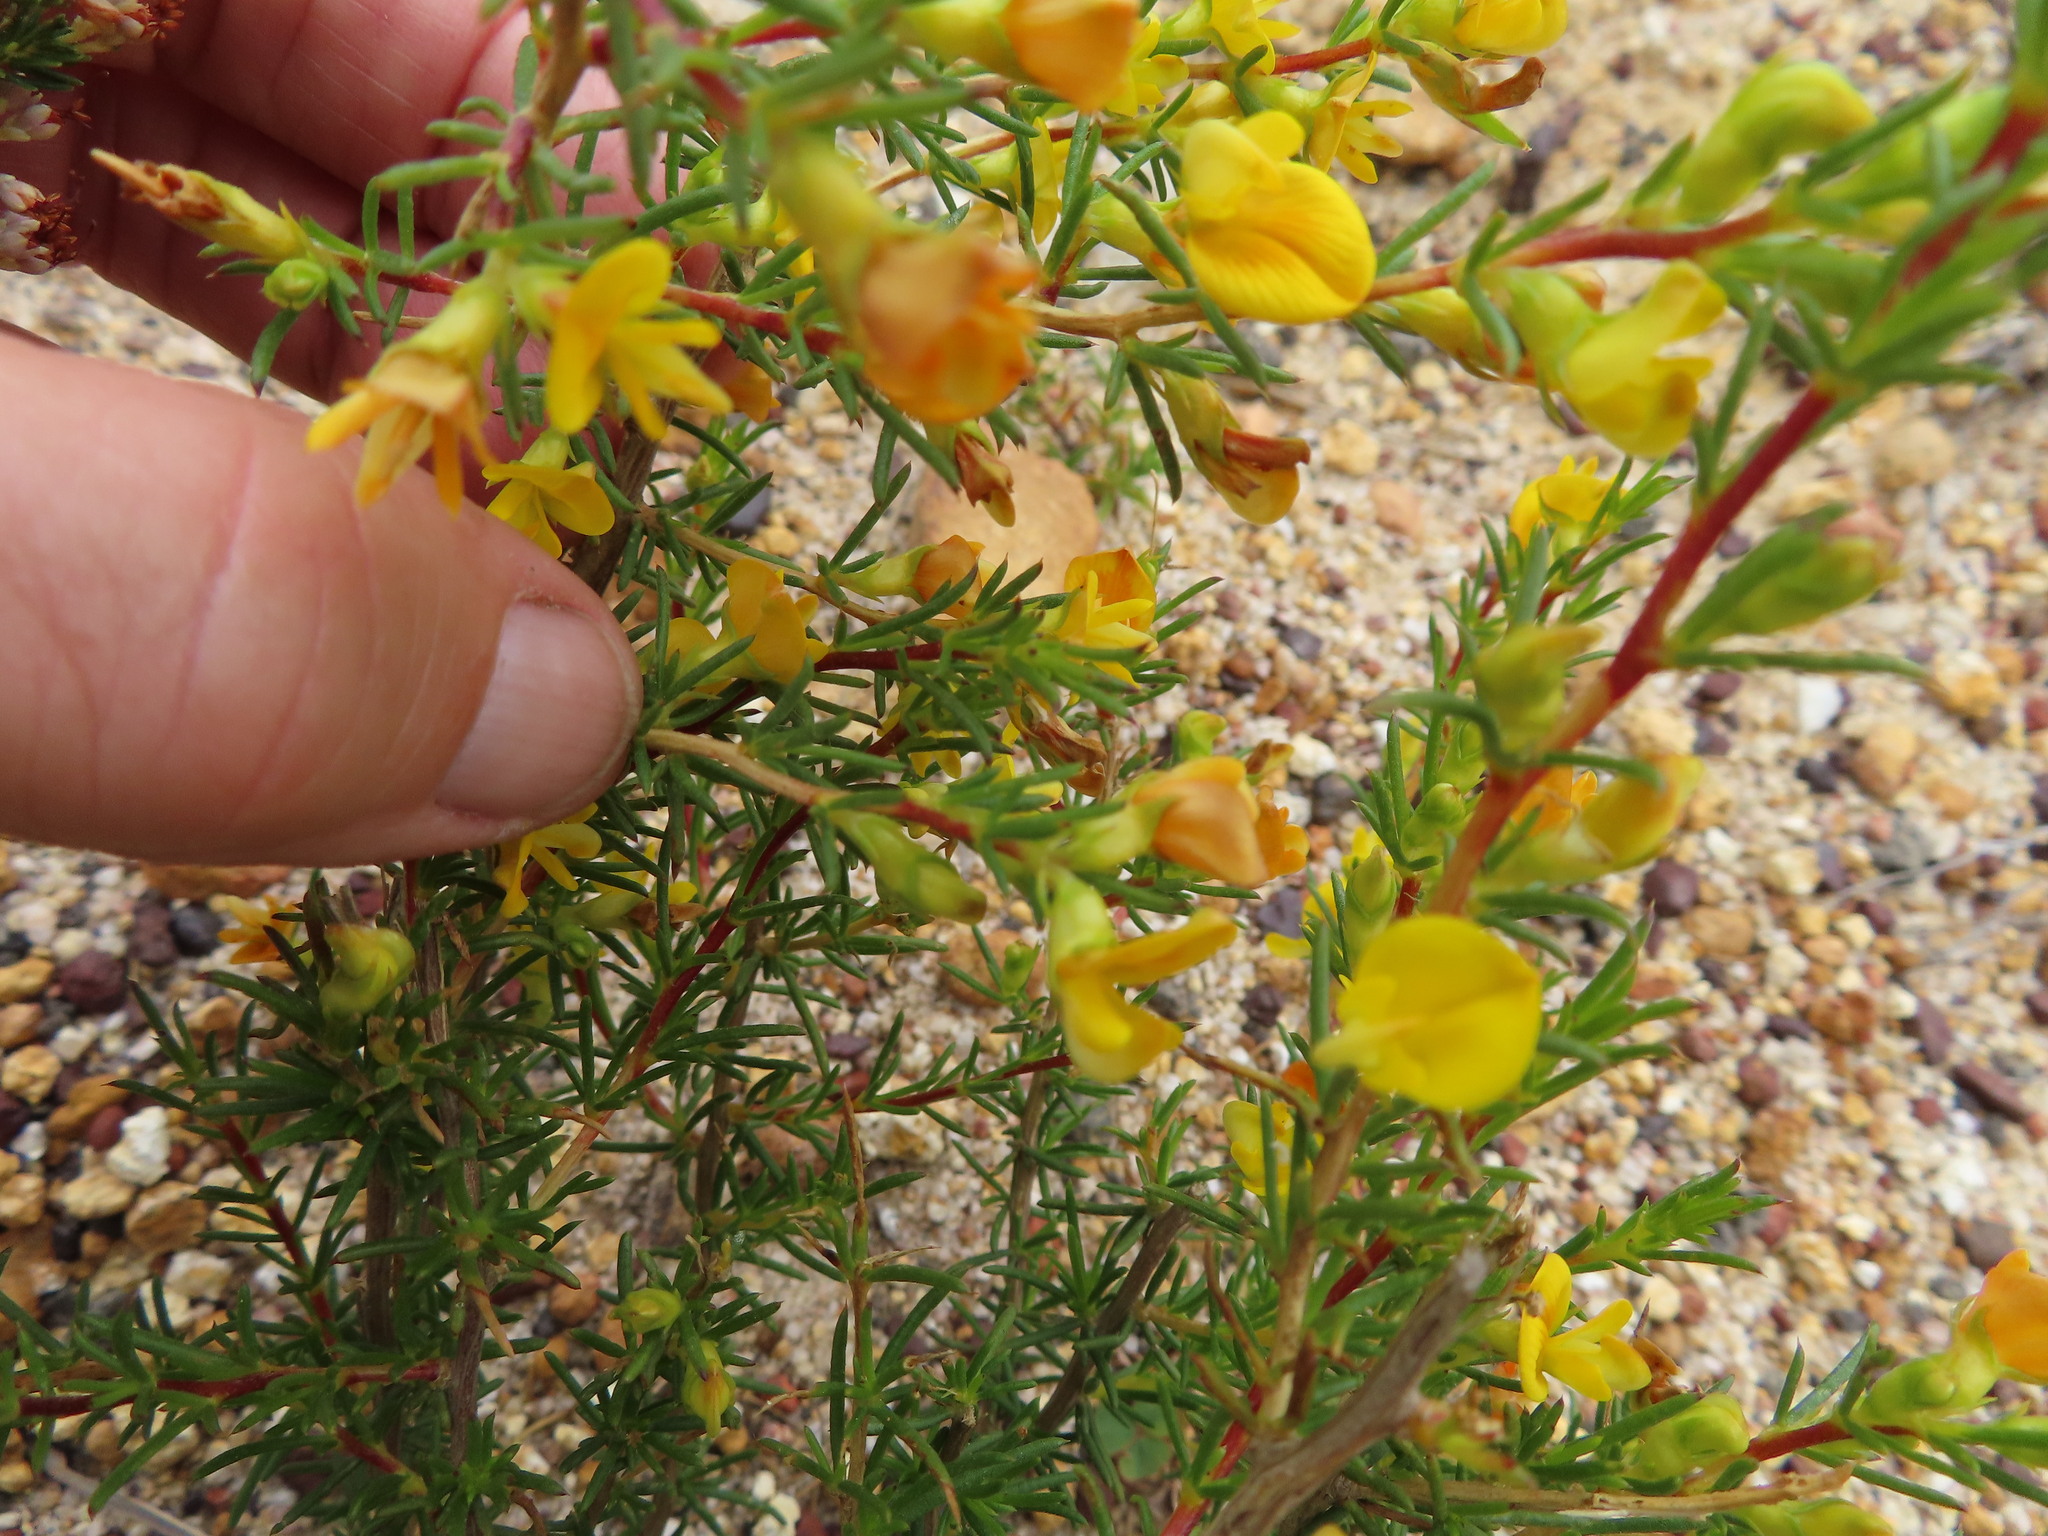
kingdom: Plantae
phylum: Tracheophyta
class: Magnoliopsida
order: Fabales
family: Fabaceae
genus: Aspalathus
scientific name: Aspalathus abietina
